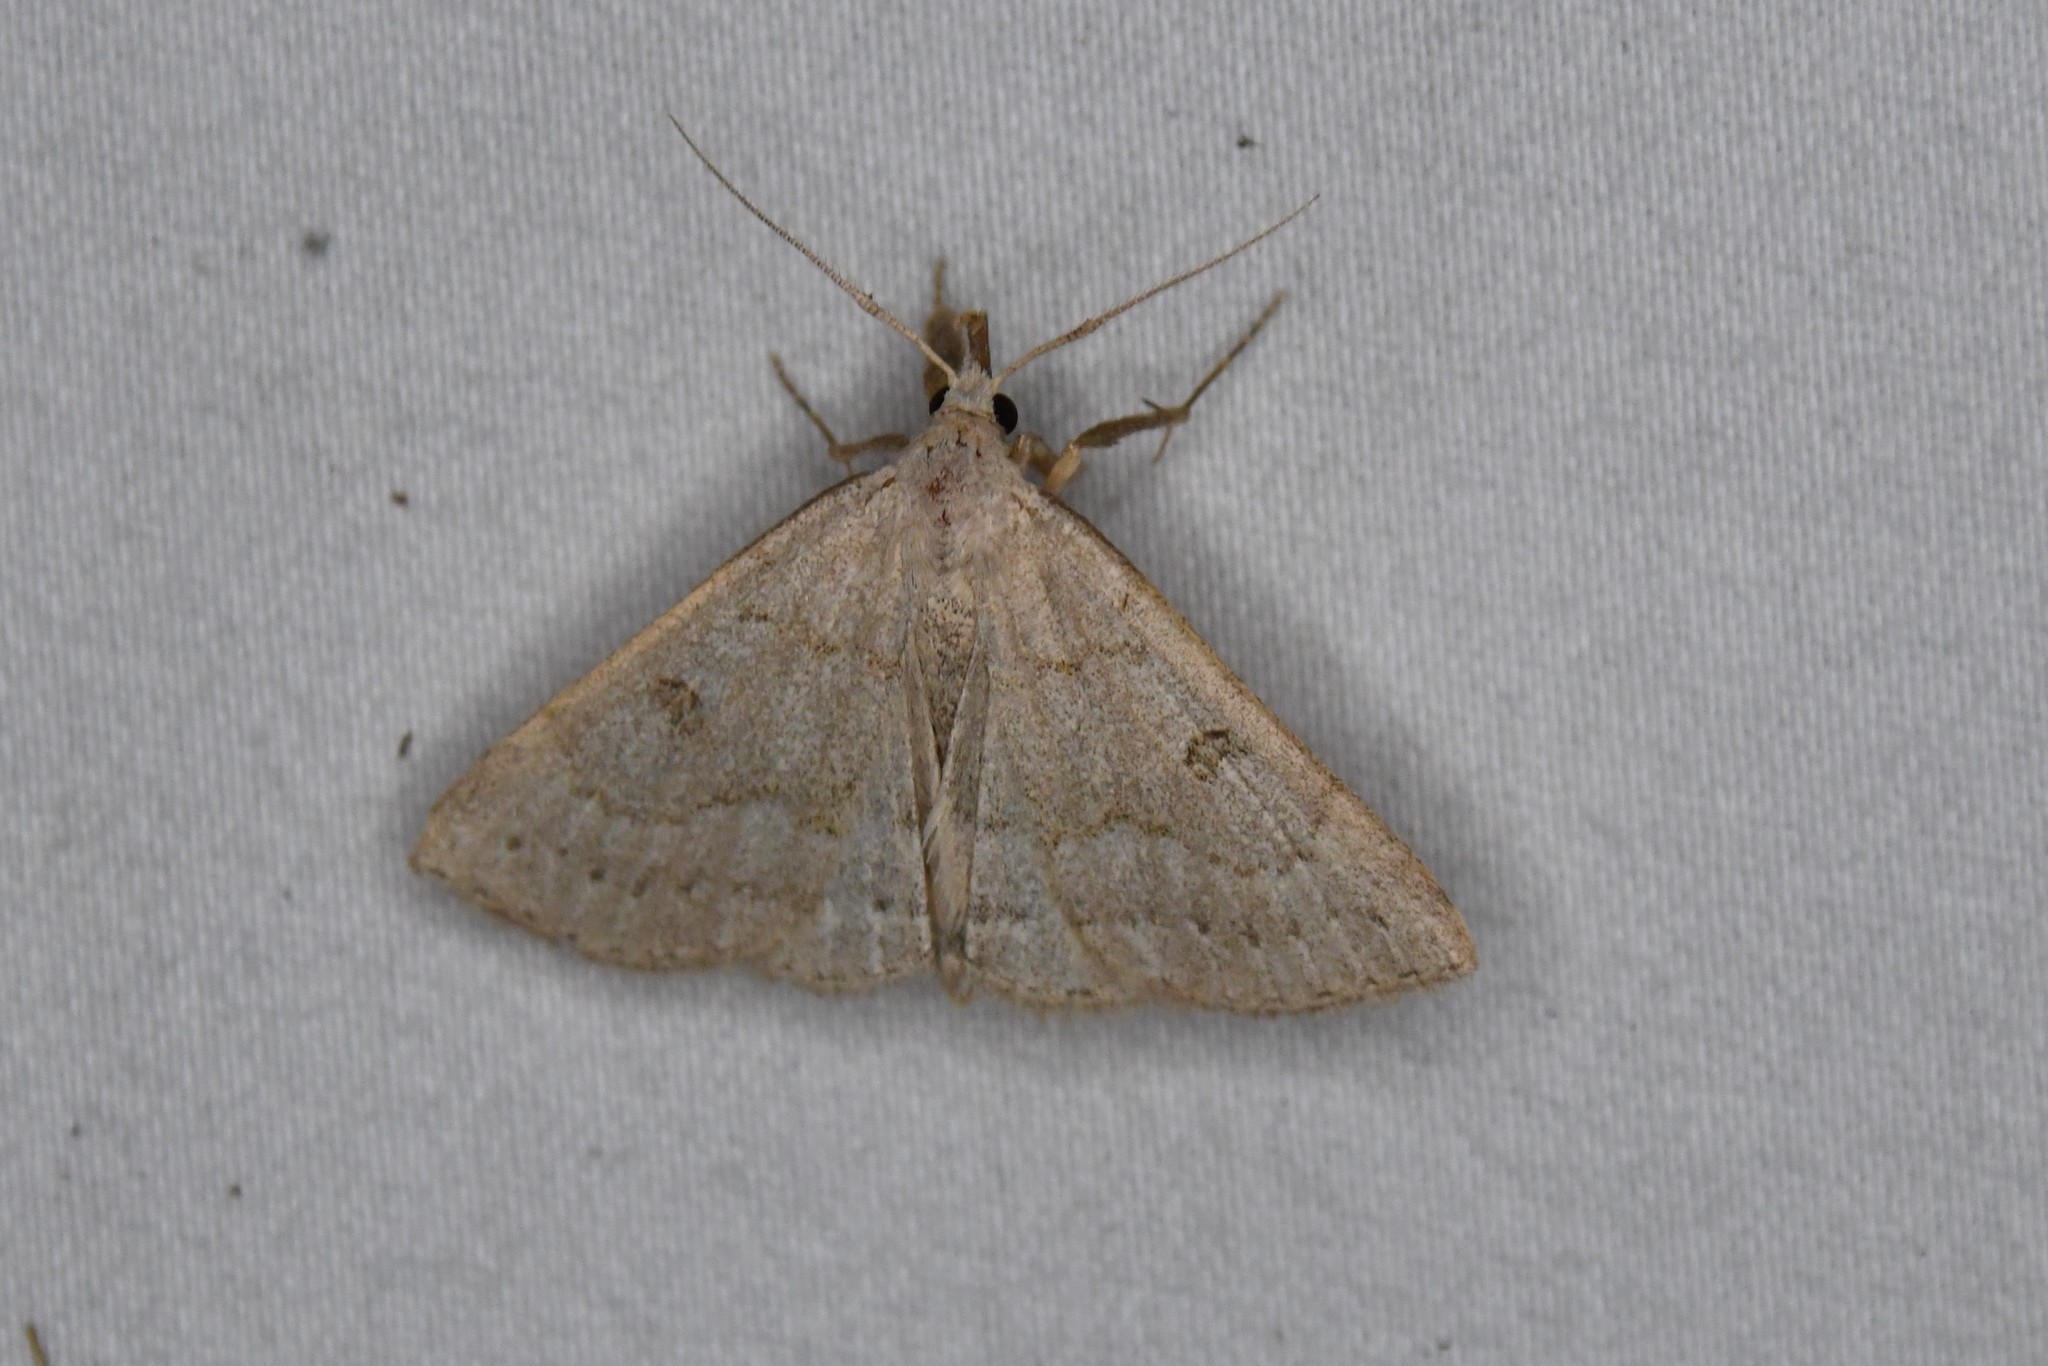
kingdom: Animalia
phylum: Arthropoda
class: Insecta
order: Lepidoptera
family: Erebidae
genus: Macrochilo
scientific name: Macrochilo morbidalis
